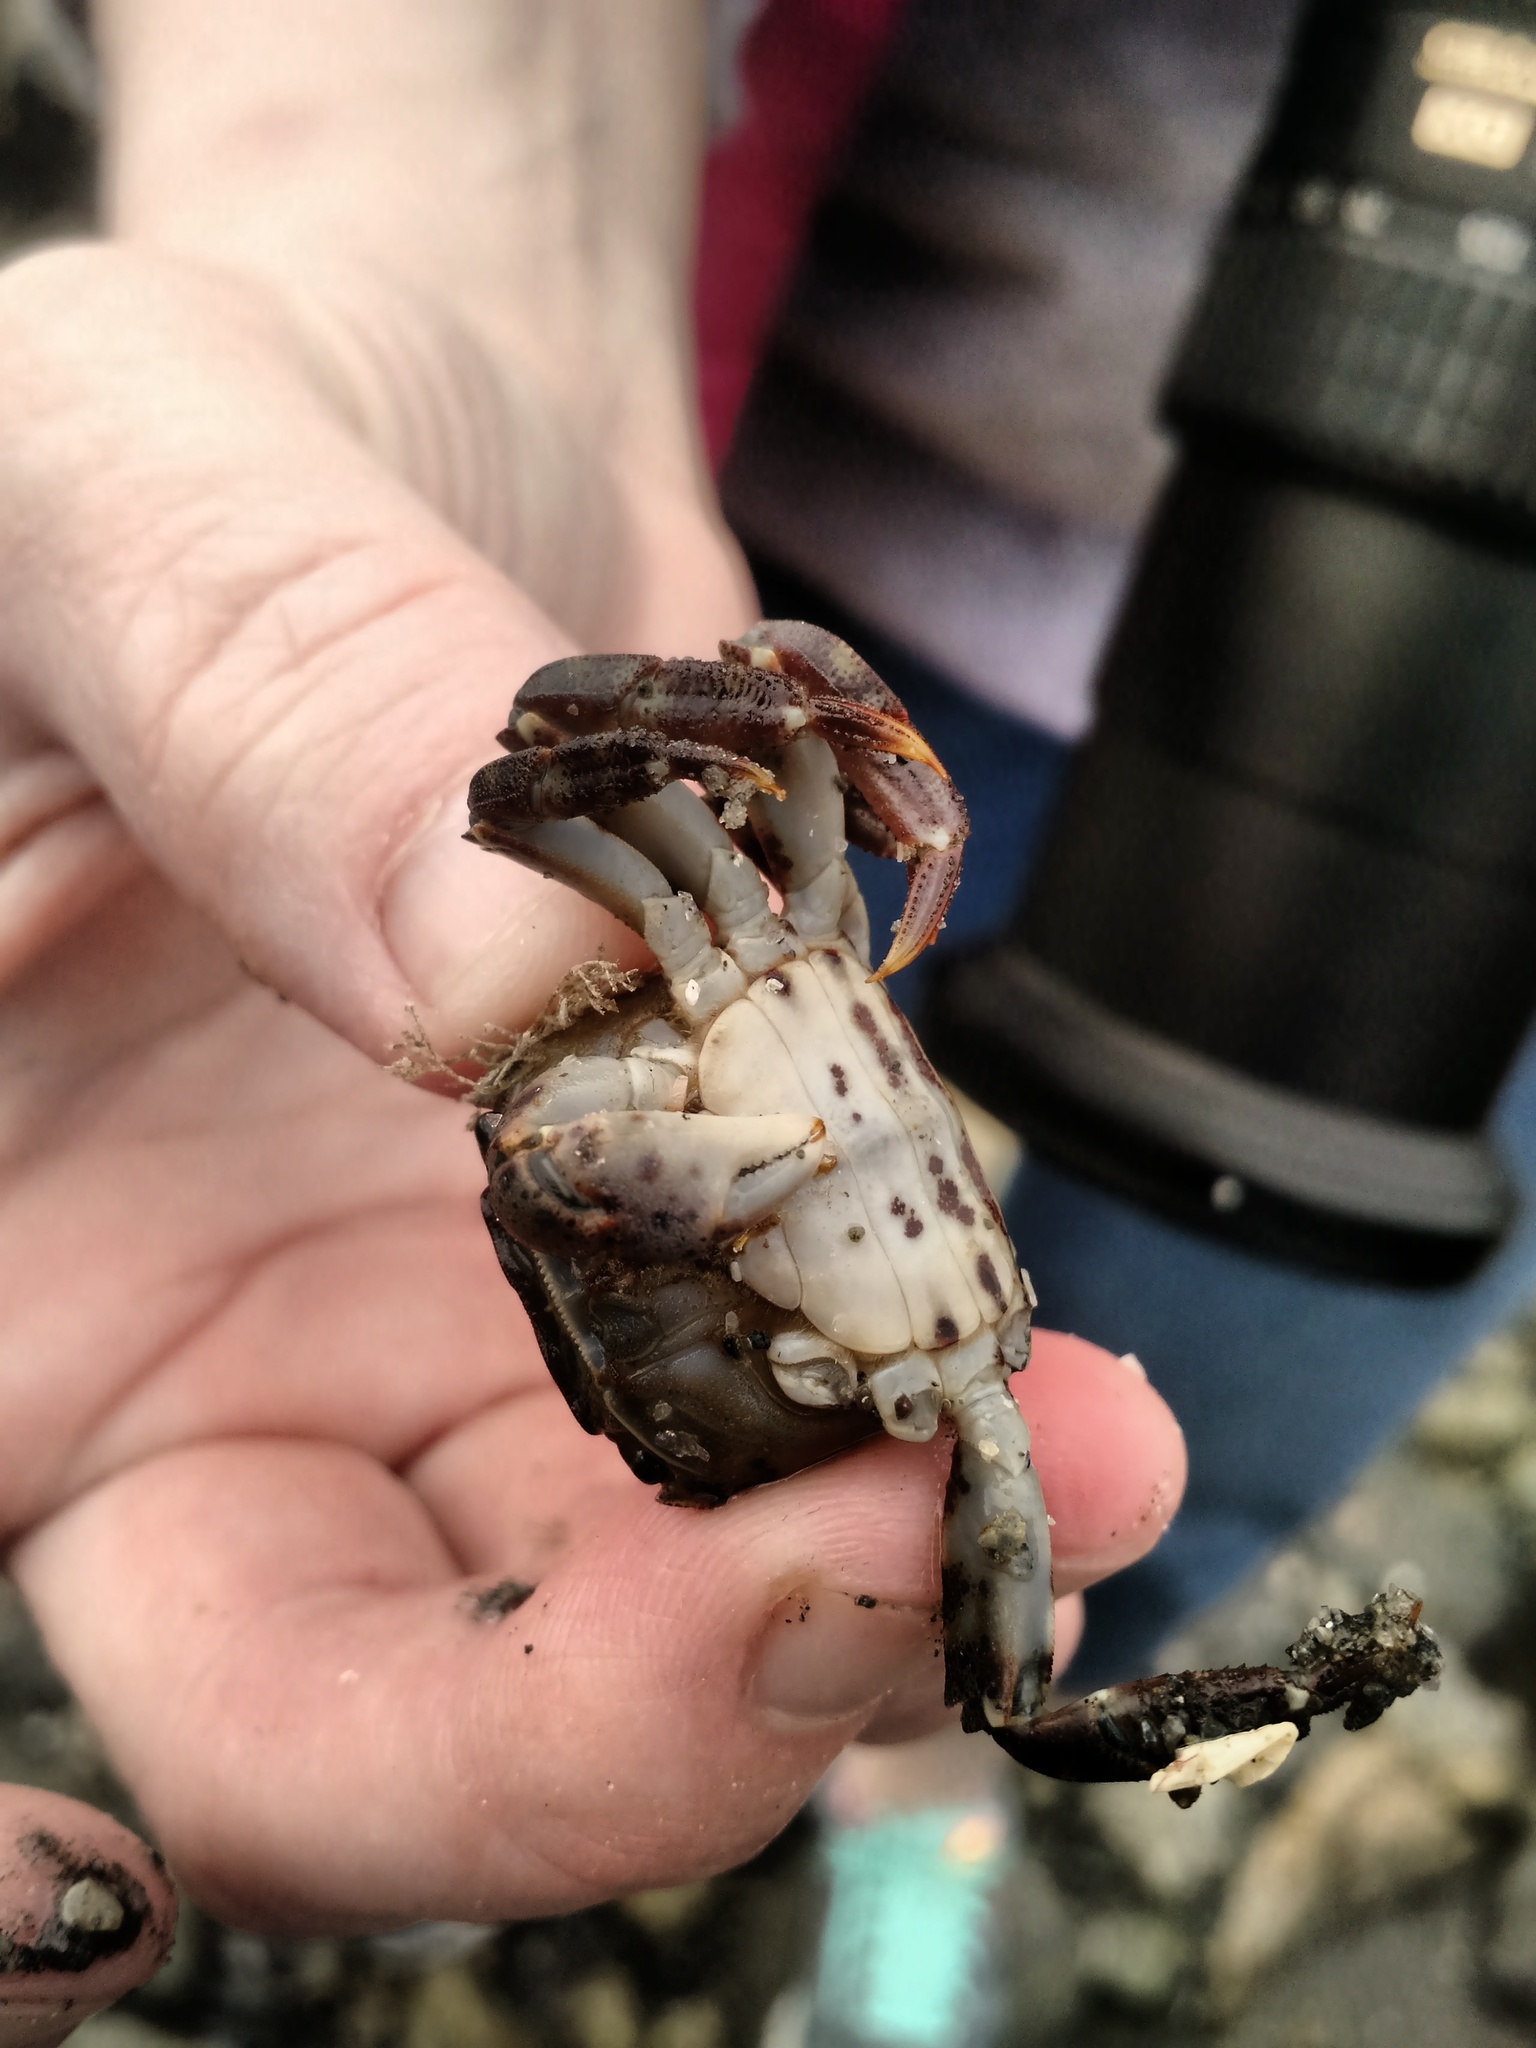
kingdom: Animalia
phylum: Arthropoda
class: Malacostraca
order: Decapoda
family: Varunidae
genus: Hemigrapsus
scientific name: Hemigrapsus sanguineus
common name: Asian shore crab
